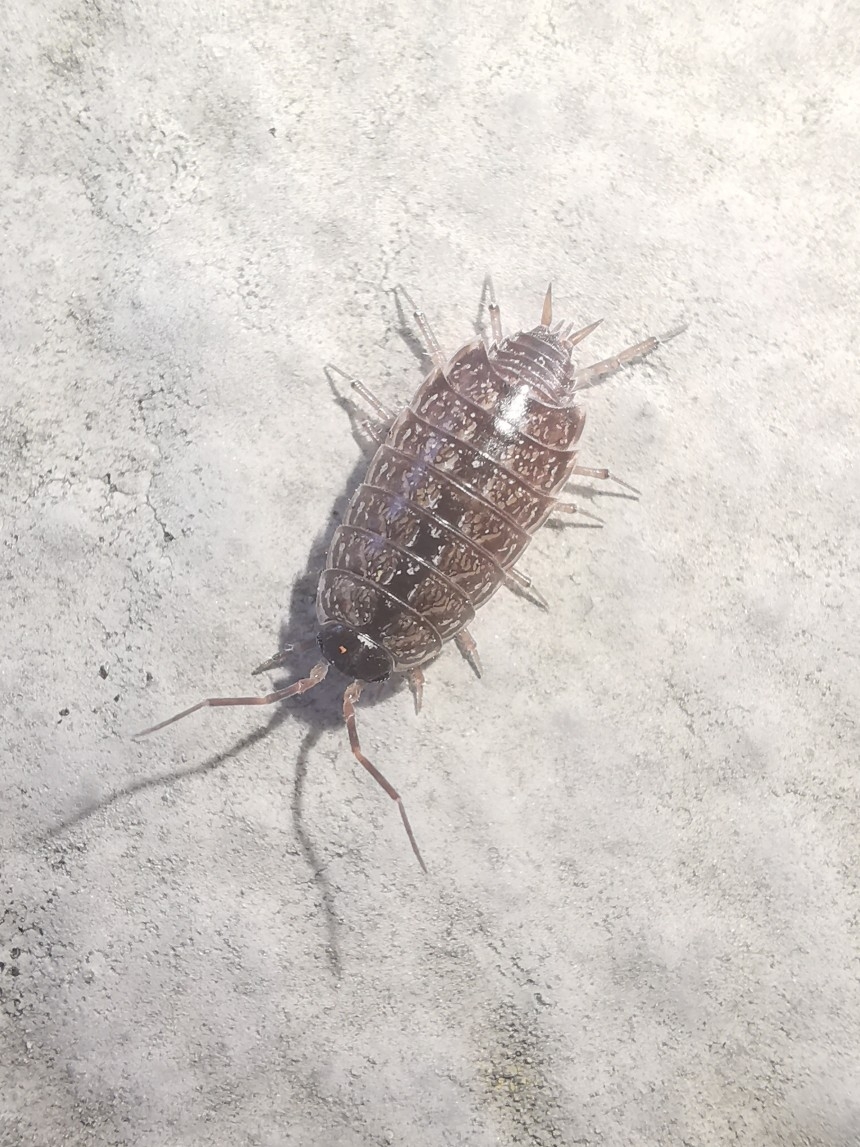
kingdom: Animalia
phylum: Arthropoda
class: Malacostraca
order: Isopoda
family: Philosciidae
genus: Philoscia
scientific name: Philoscia muscorum
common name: Common striped woodlouse
